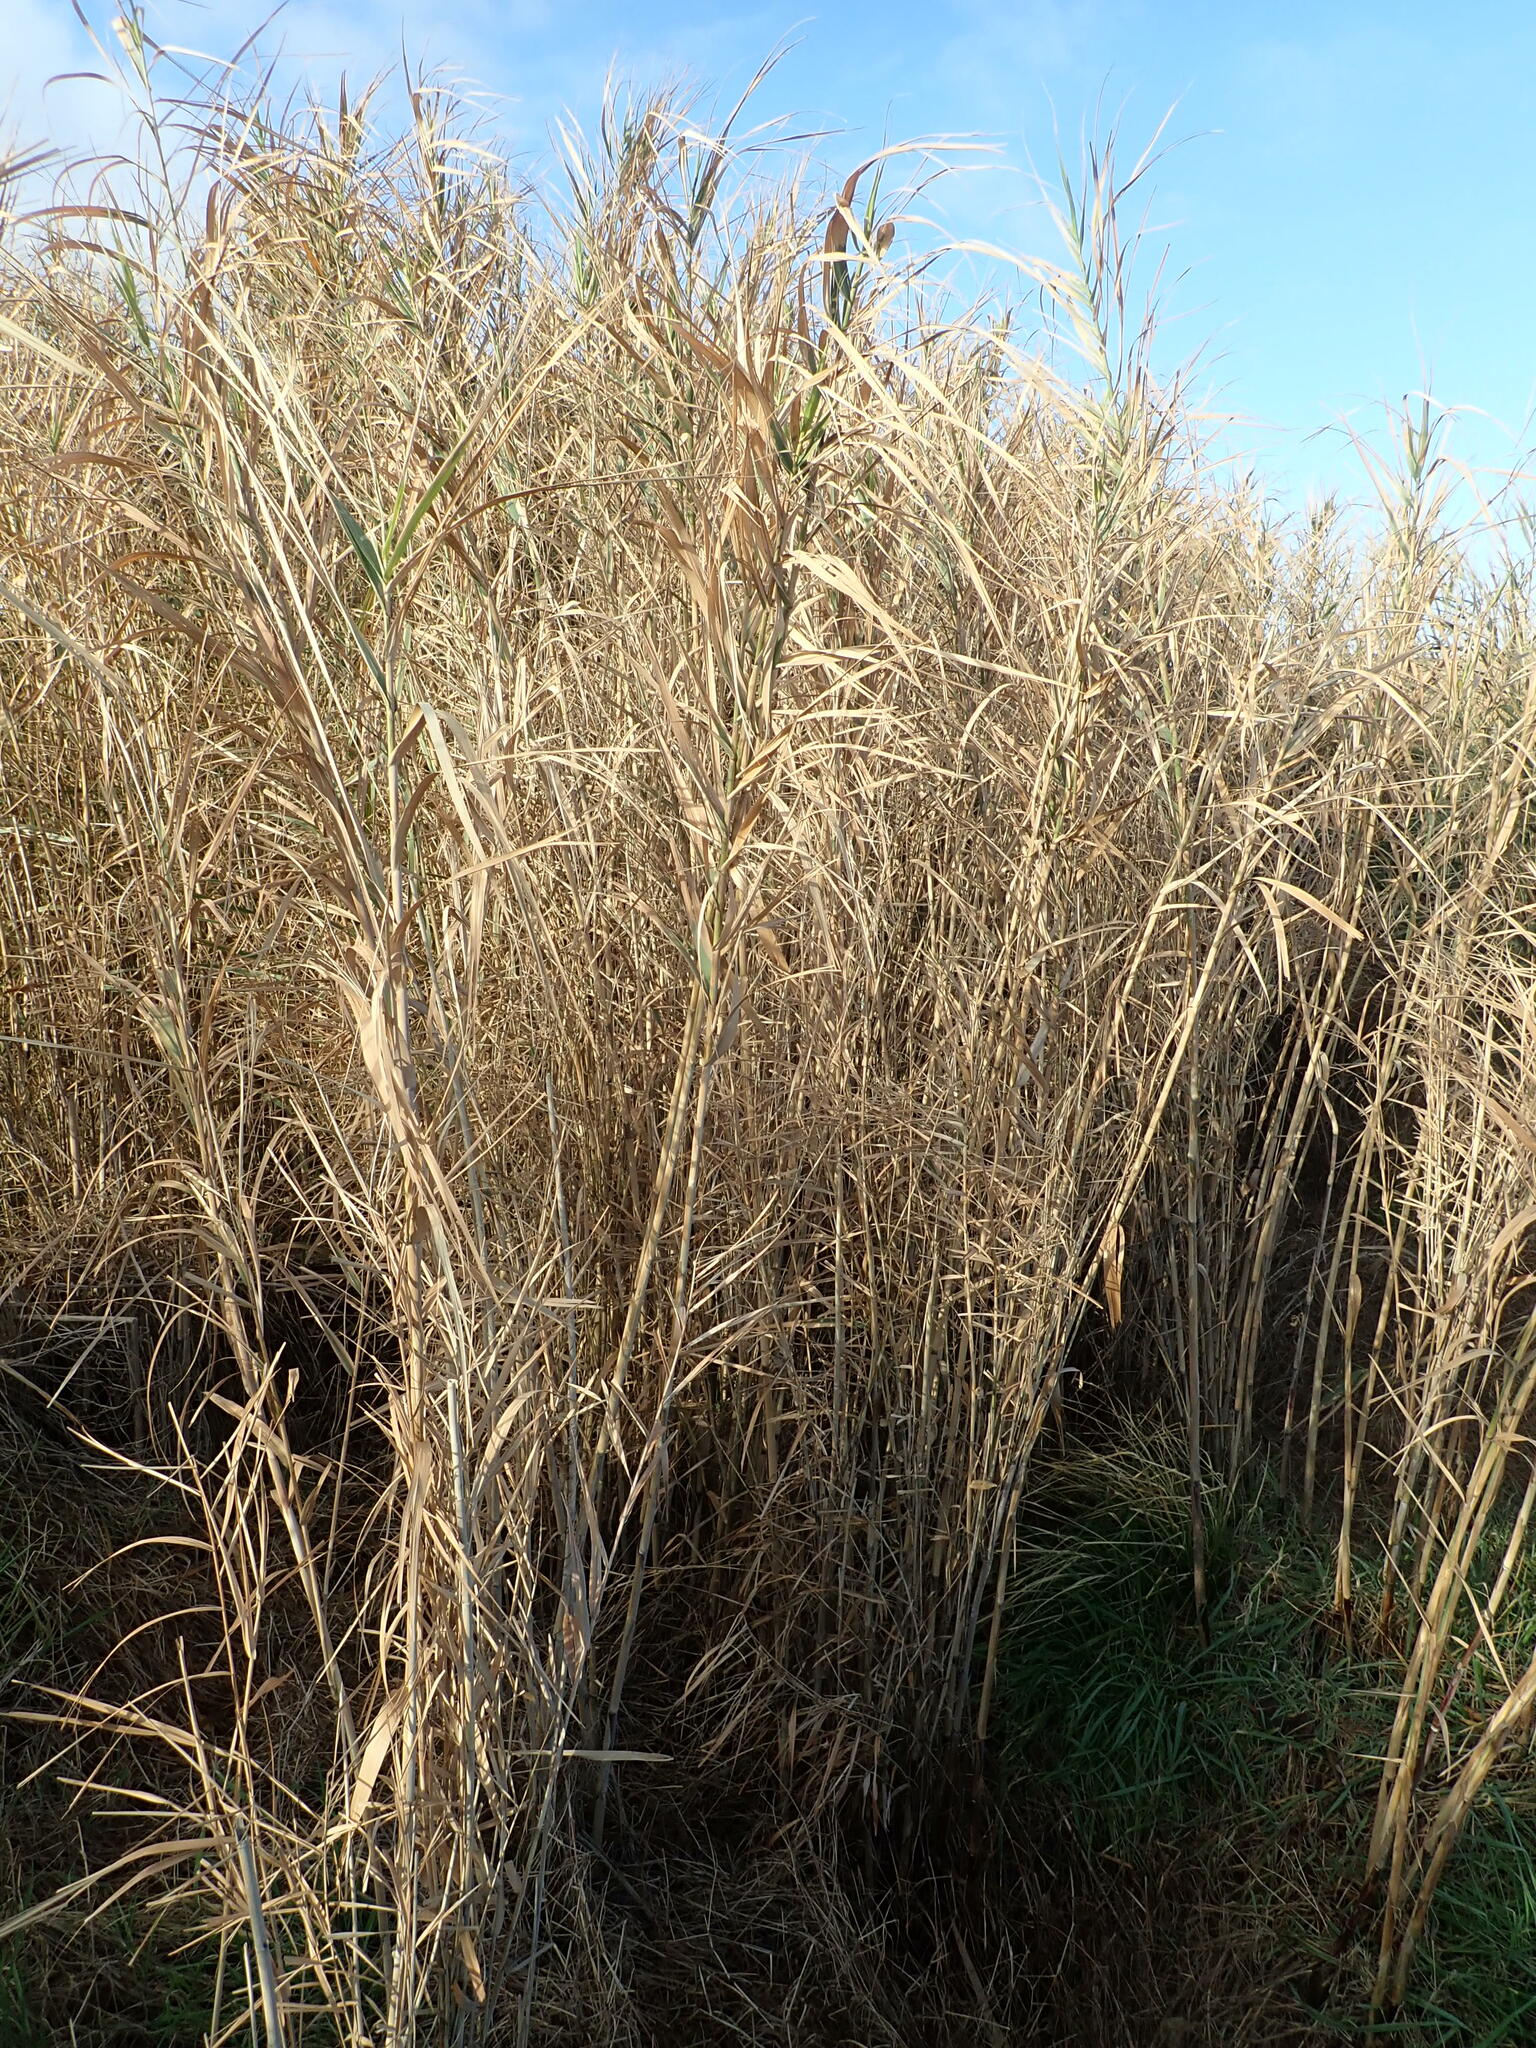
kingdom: Plantae
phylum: Tracheophyta
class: Liliopsida
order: Poales
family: Poaceae
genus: Phragmites
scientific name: Phragmites karka
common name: Tropical reed
